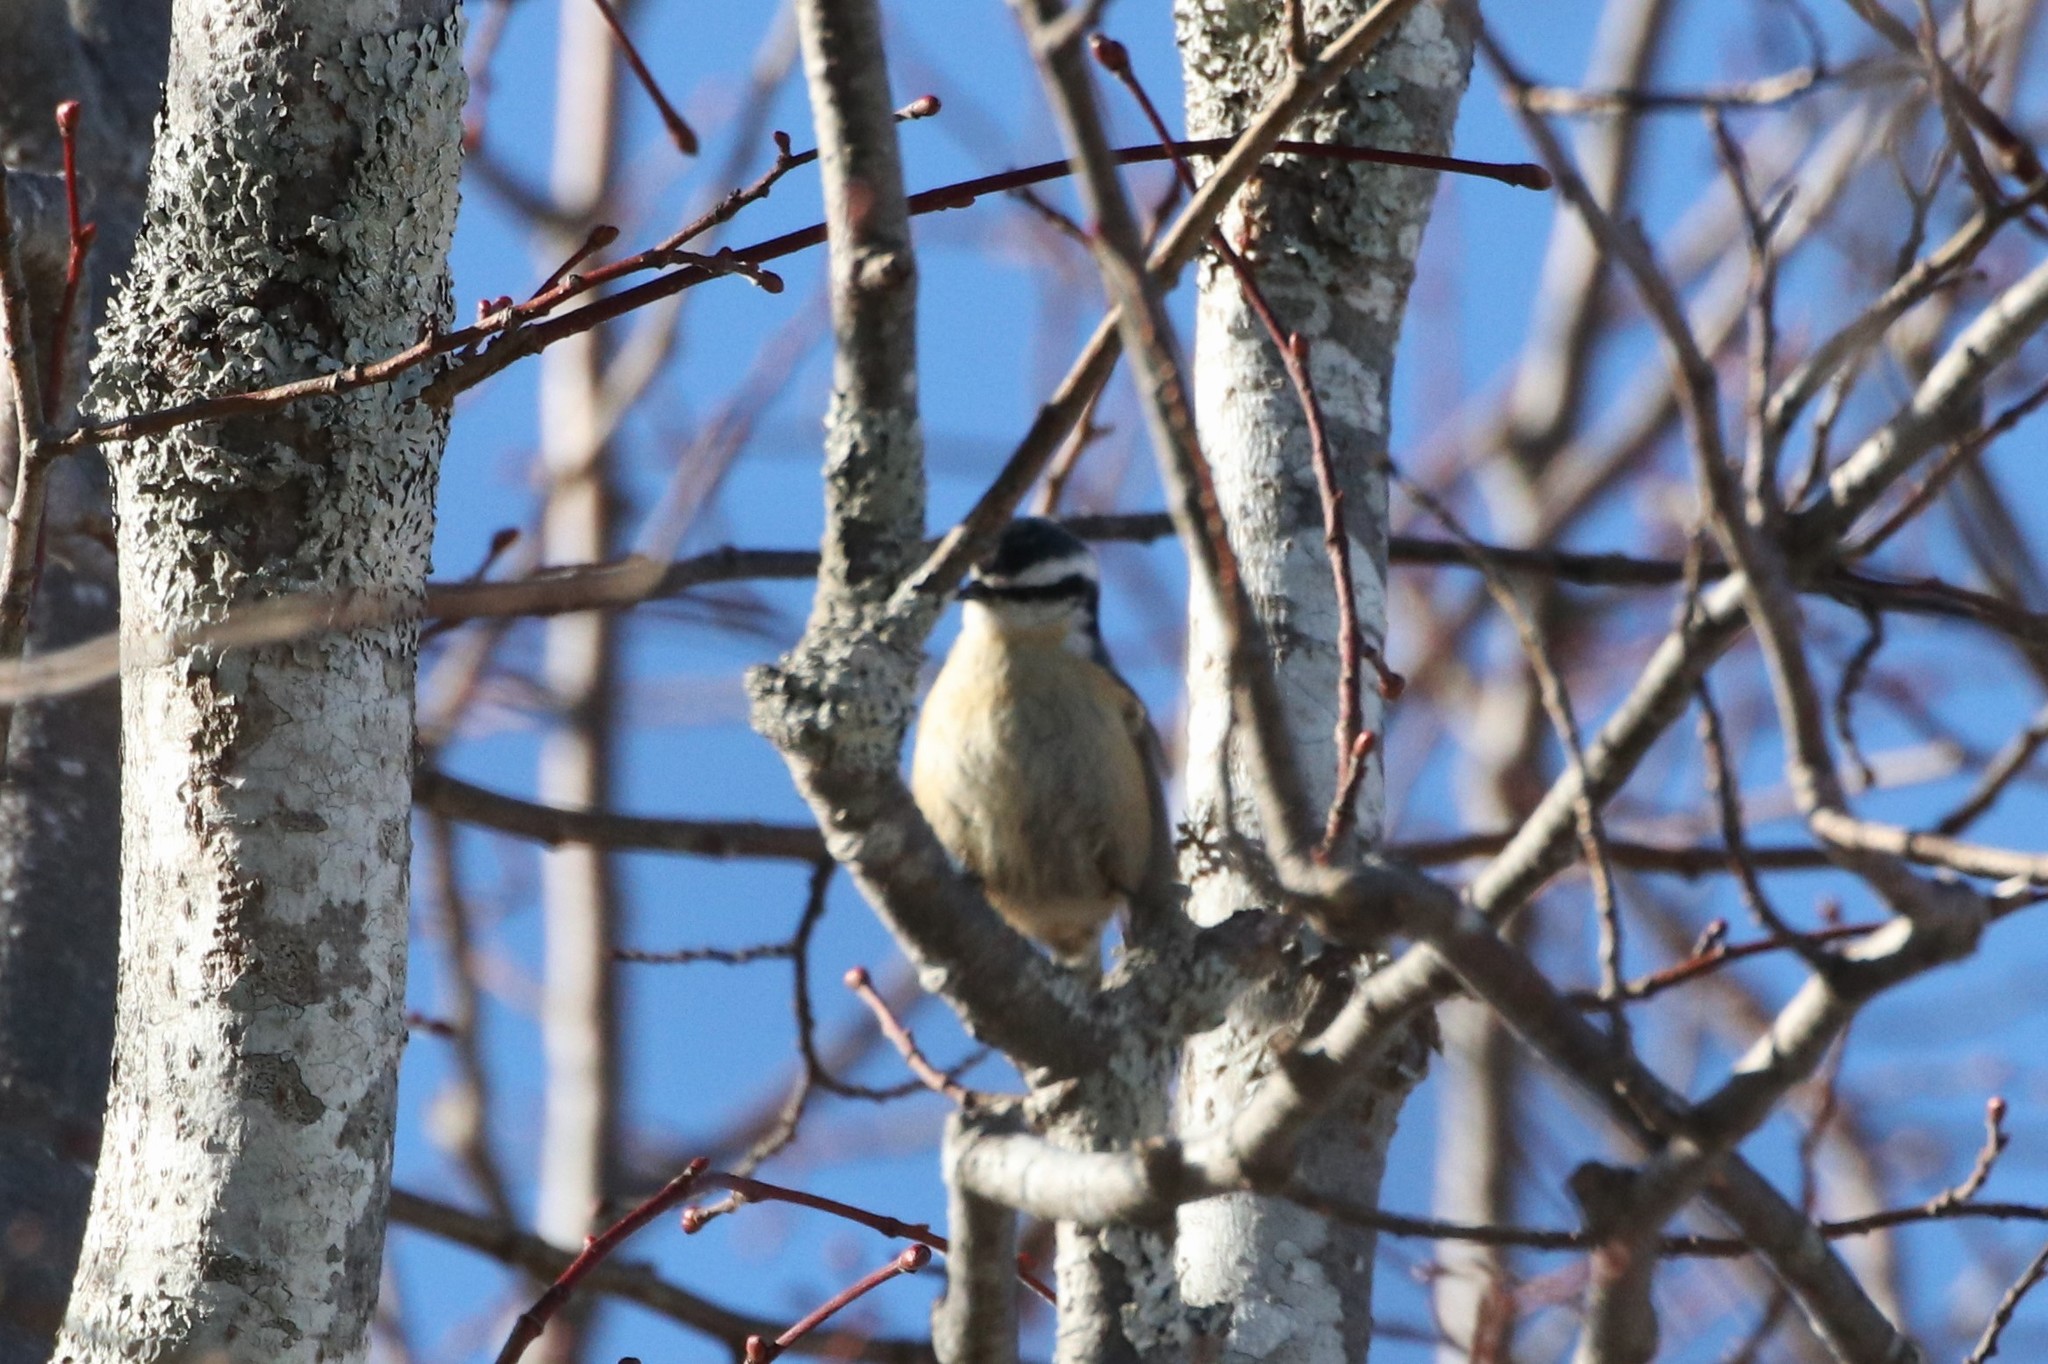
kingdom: Animalia
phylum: Chordata
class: Aves
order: Passeriformes
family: Sittidae
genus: Sitta
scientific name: Sitta canadensis
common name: Red-breasted nuthatch
